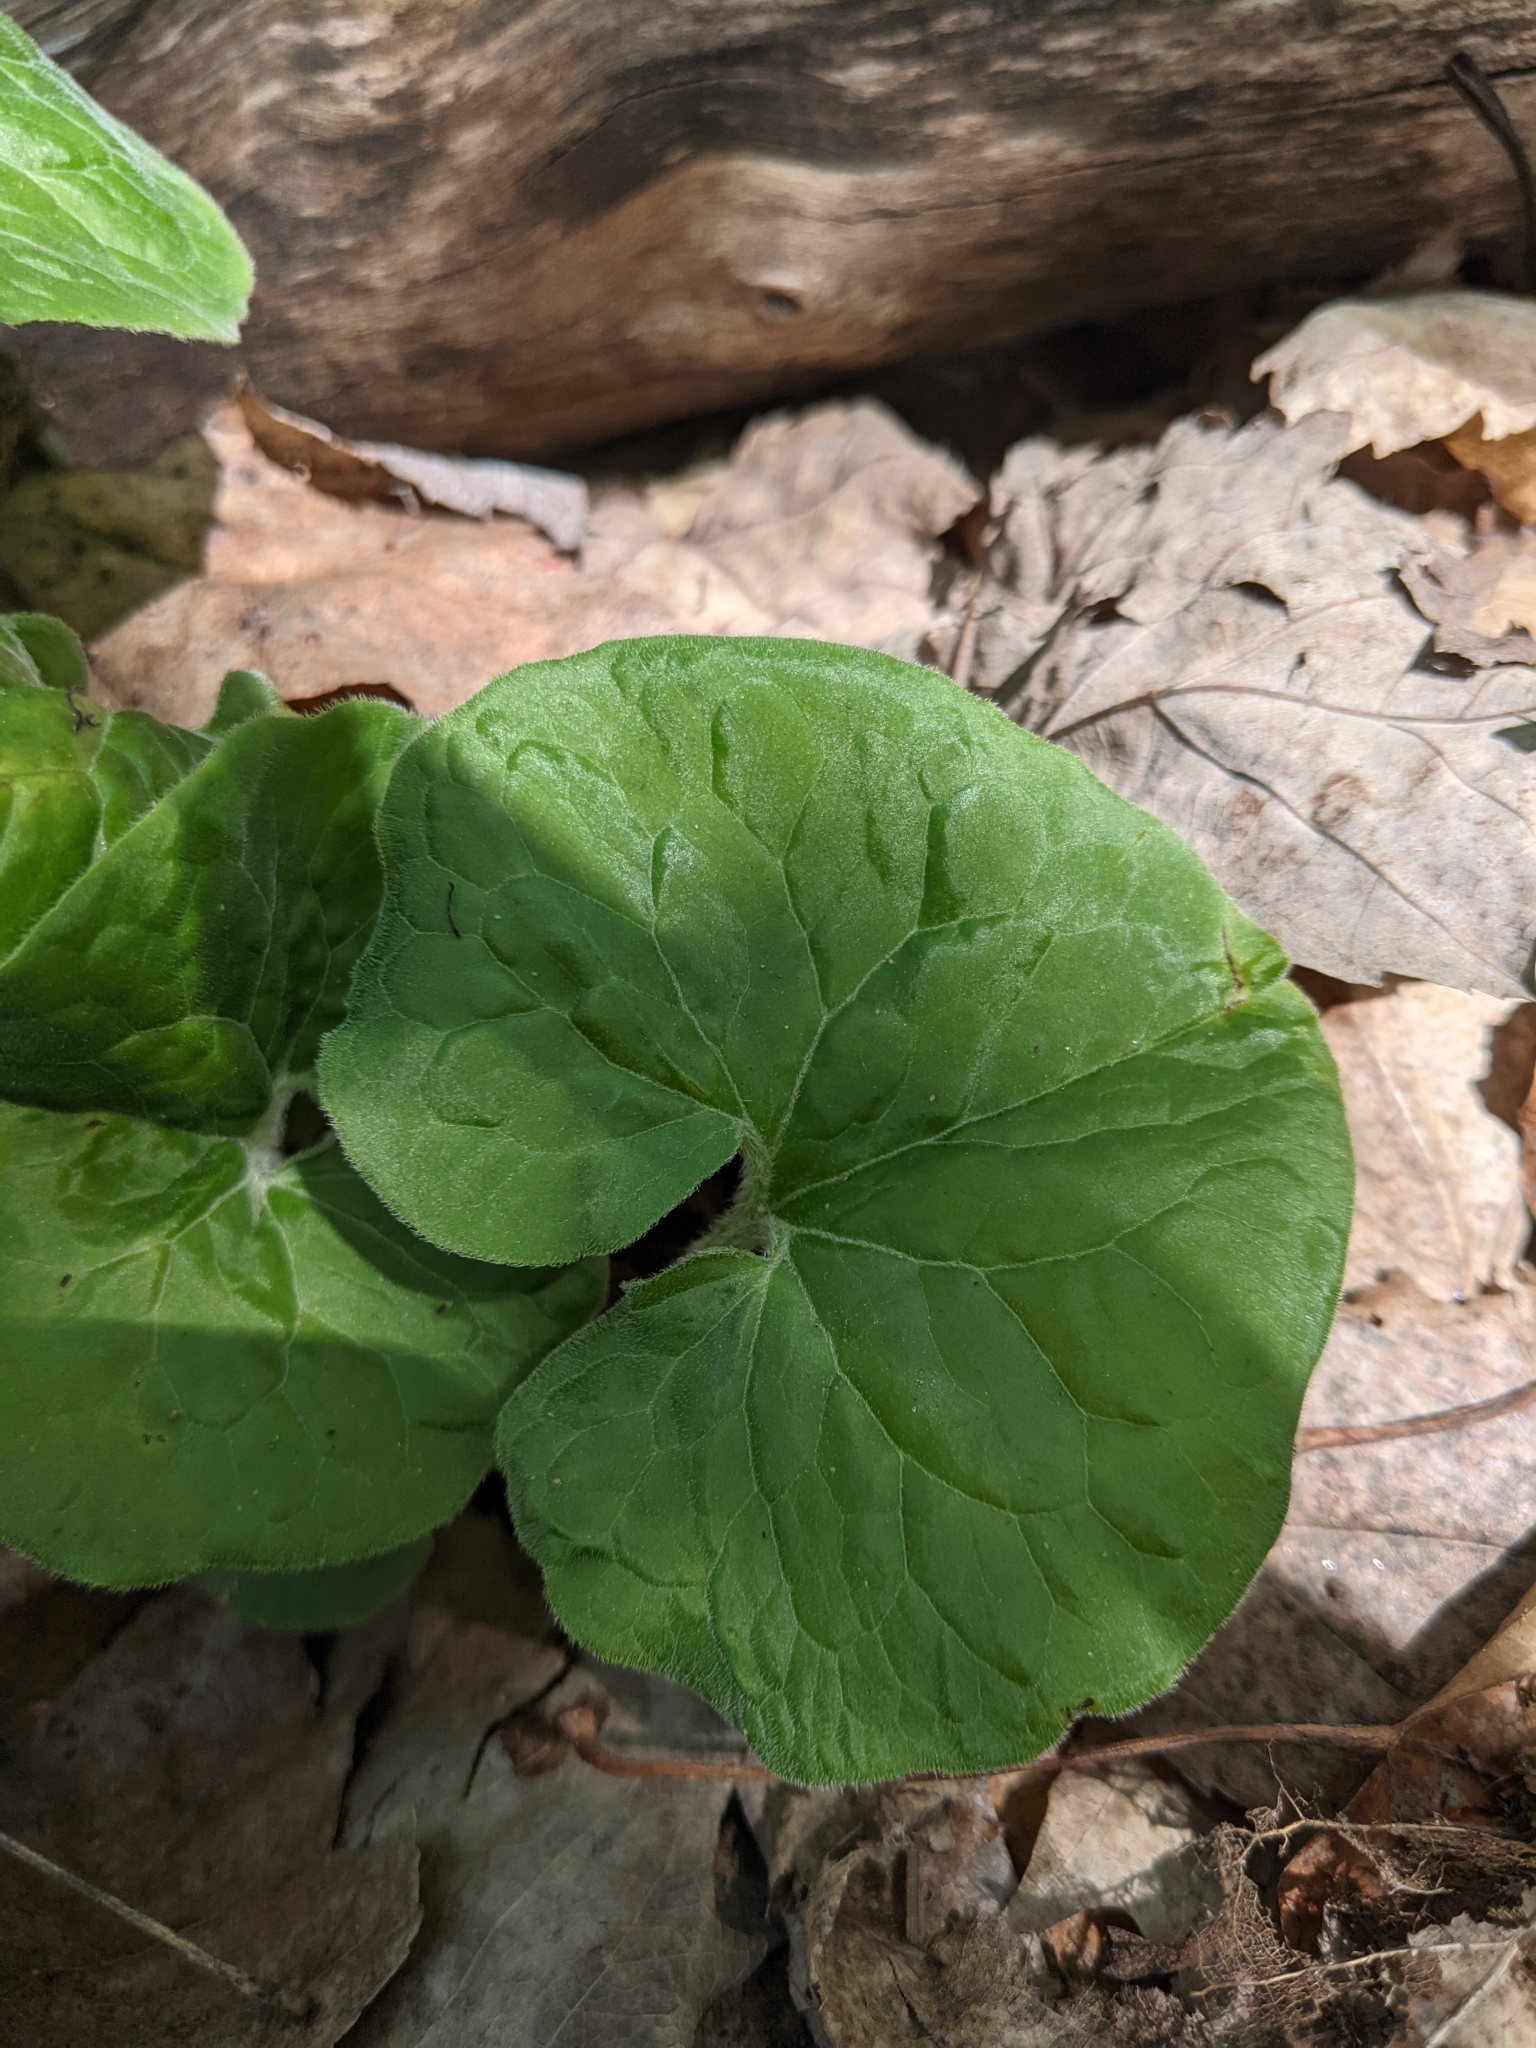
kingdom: Plantae
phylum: Tracheophyta
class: Magnoliopsida
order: Piperales
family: Aristolochiaceae
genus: Asarum
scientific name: Asarum canadense
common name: Wild ginger
